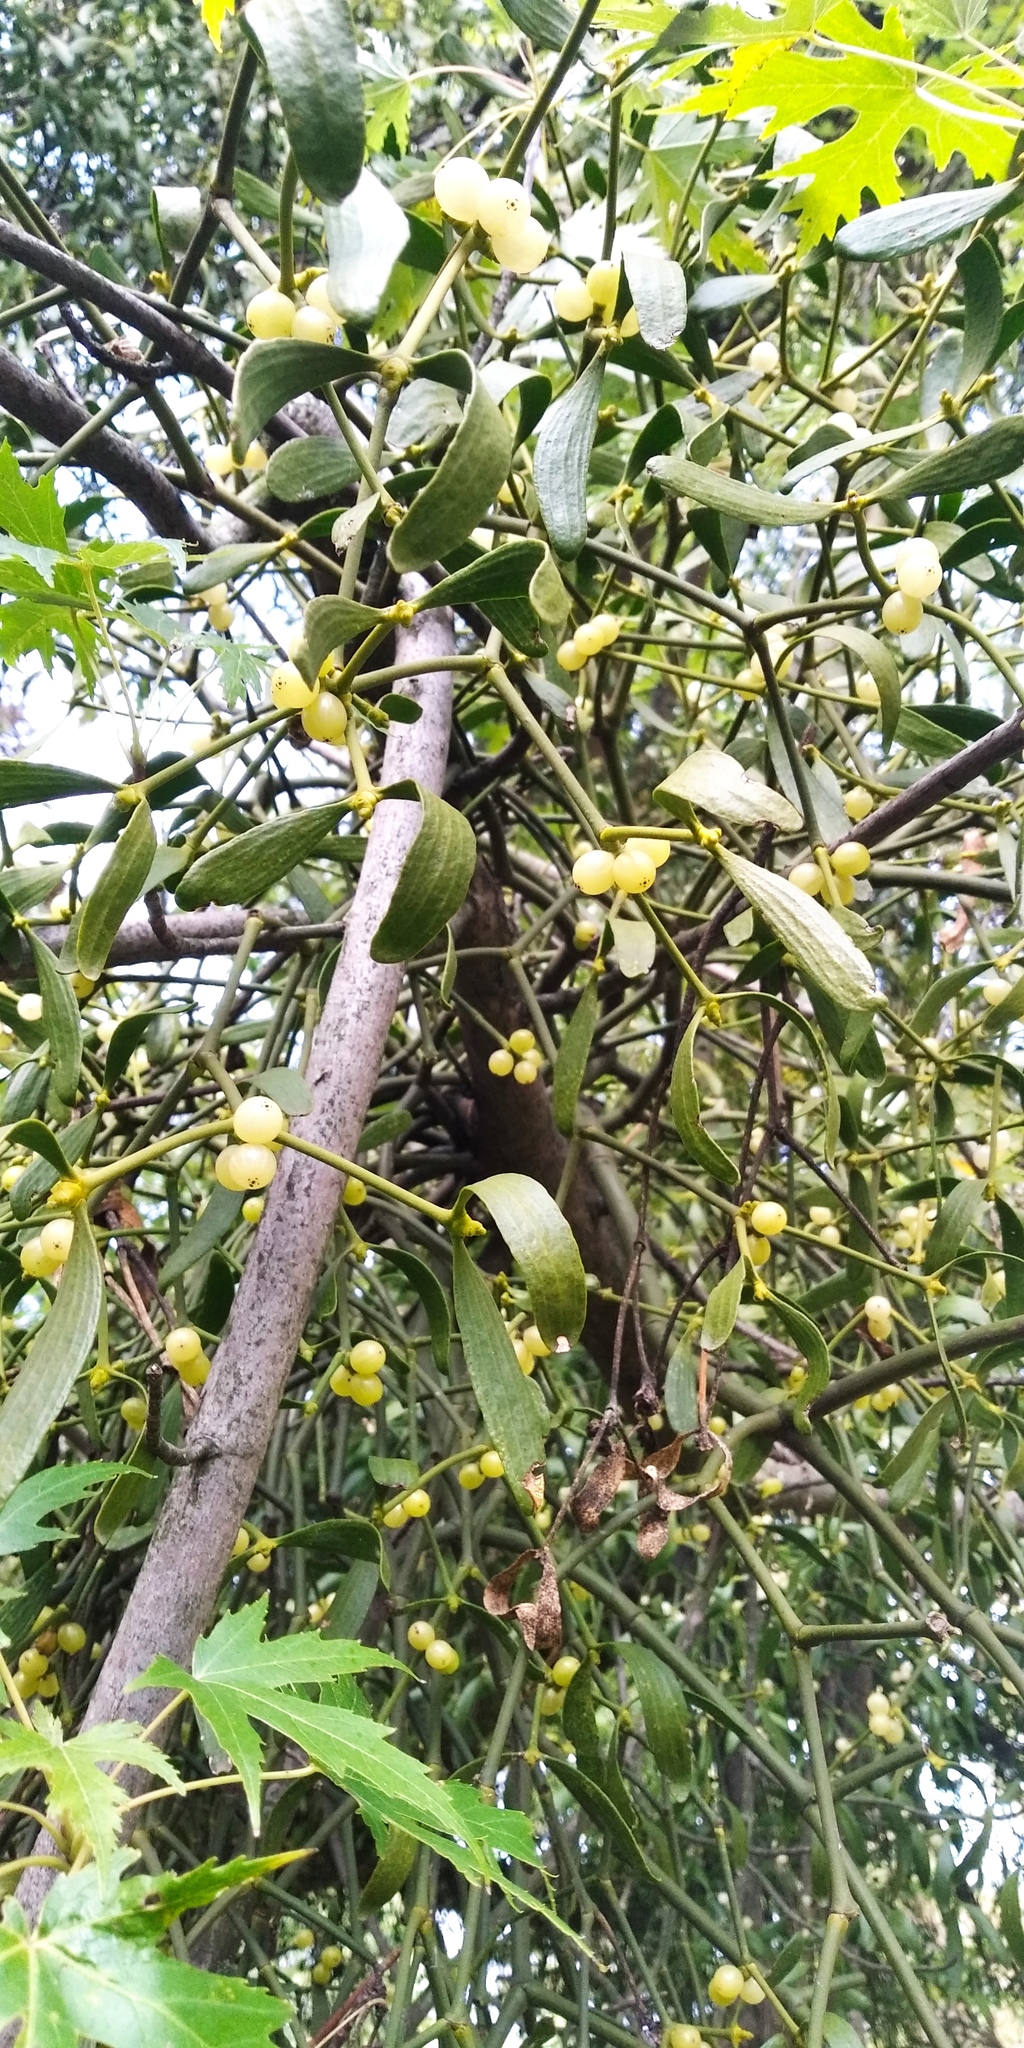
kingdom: Plantae
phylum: Tracheophyta
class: Magnoliopsida
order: Santalales
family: Viscaceae
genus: Viscum
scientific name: Viscum album
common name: Mistletoe
